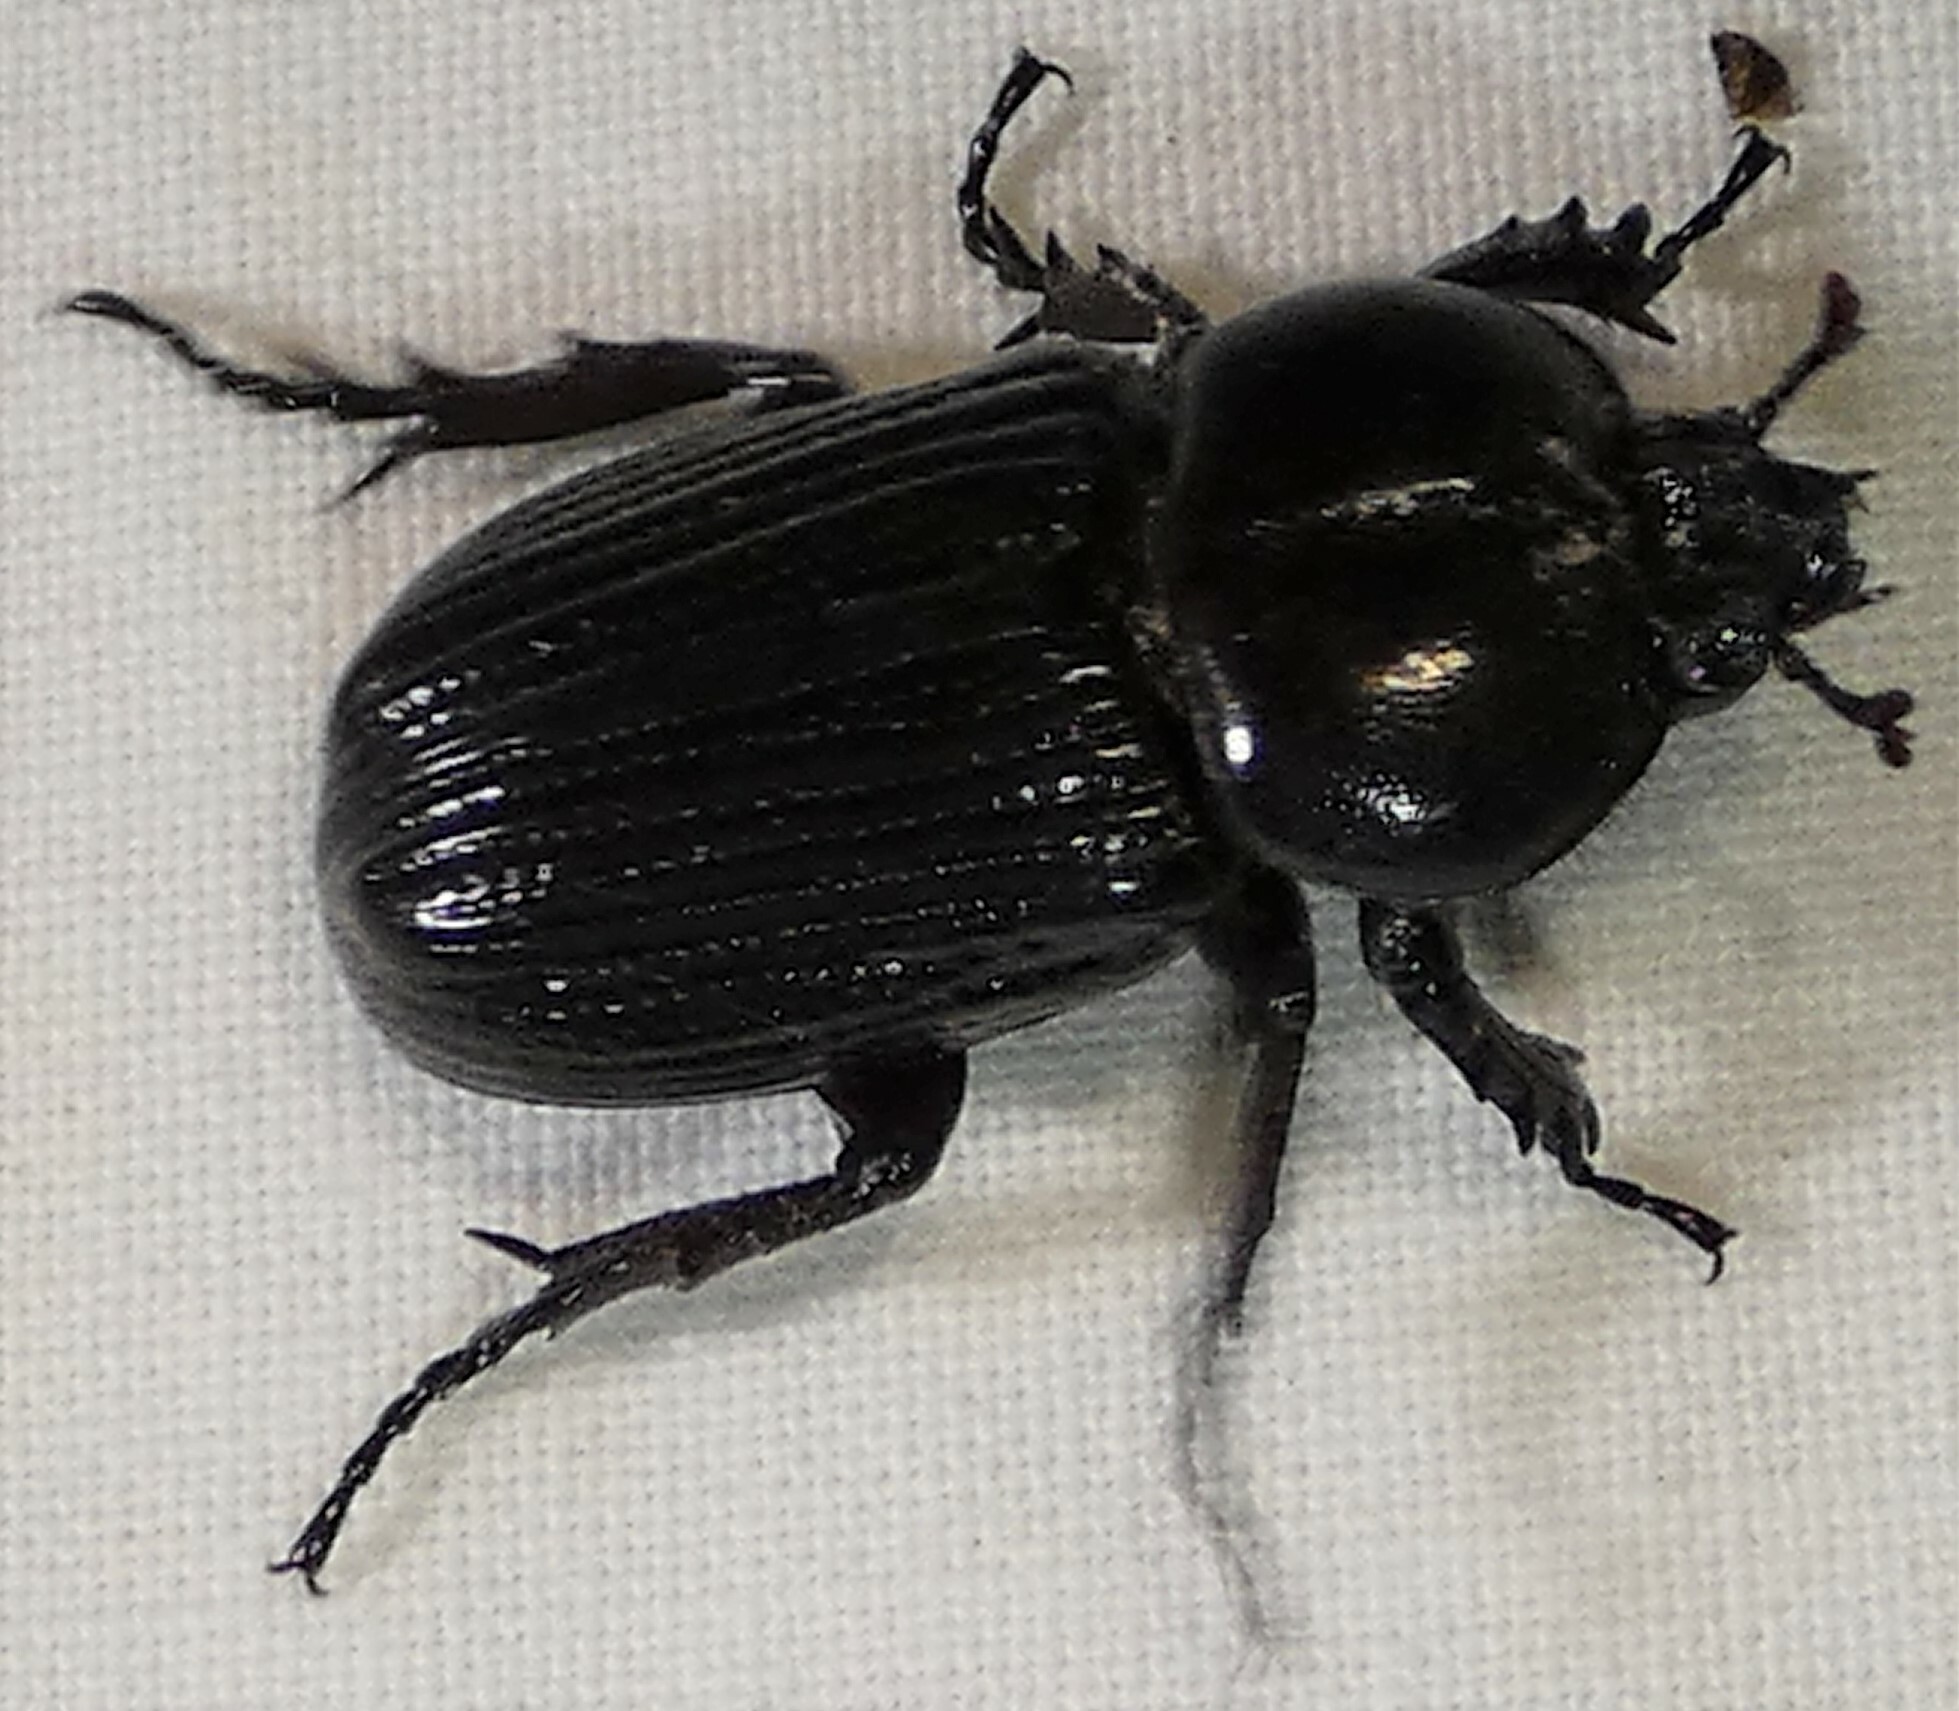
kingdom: Animalia
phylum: Arthropoda
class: Insecta
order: Coleoptera
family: Scarabaeidae
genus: Phileurus
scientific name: Phileurus valgus
